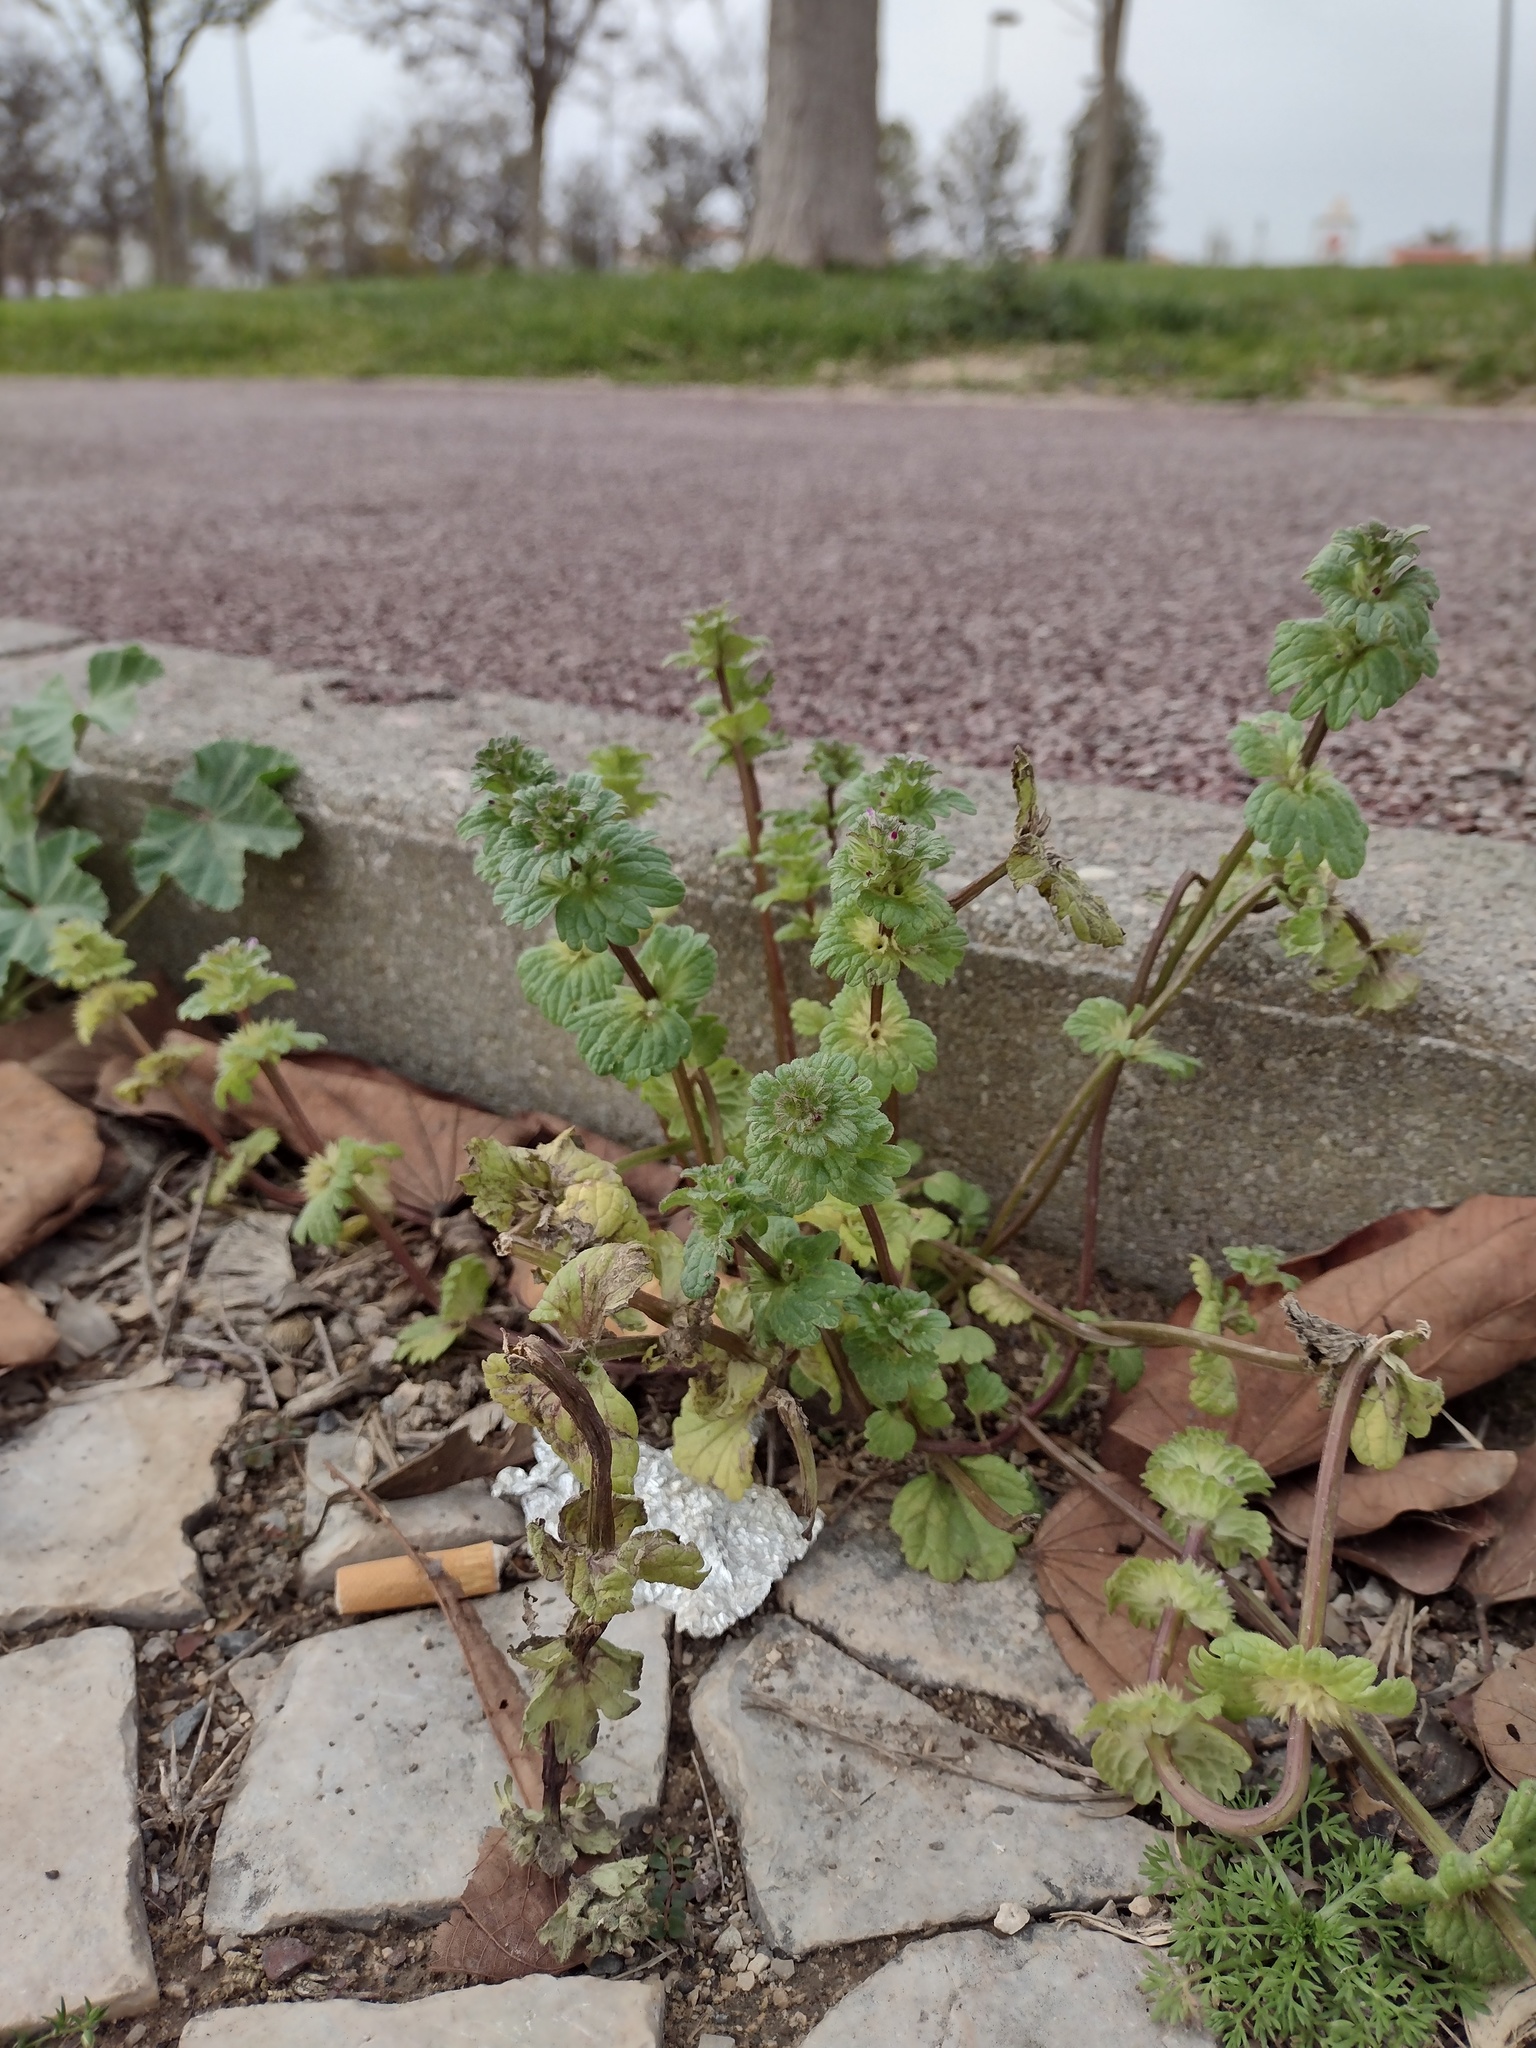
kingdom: Plantae
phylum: Tracheophyta
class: Magnoliopsida
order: Lamiales
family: Lamiaceae
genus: Lamium
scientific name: Lamium amplexicaule
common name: Henbit dead-nettle
